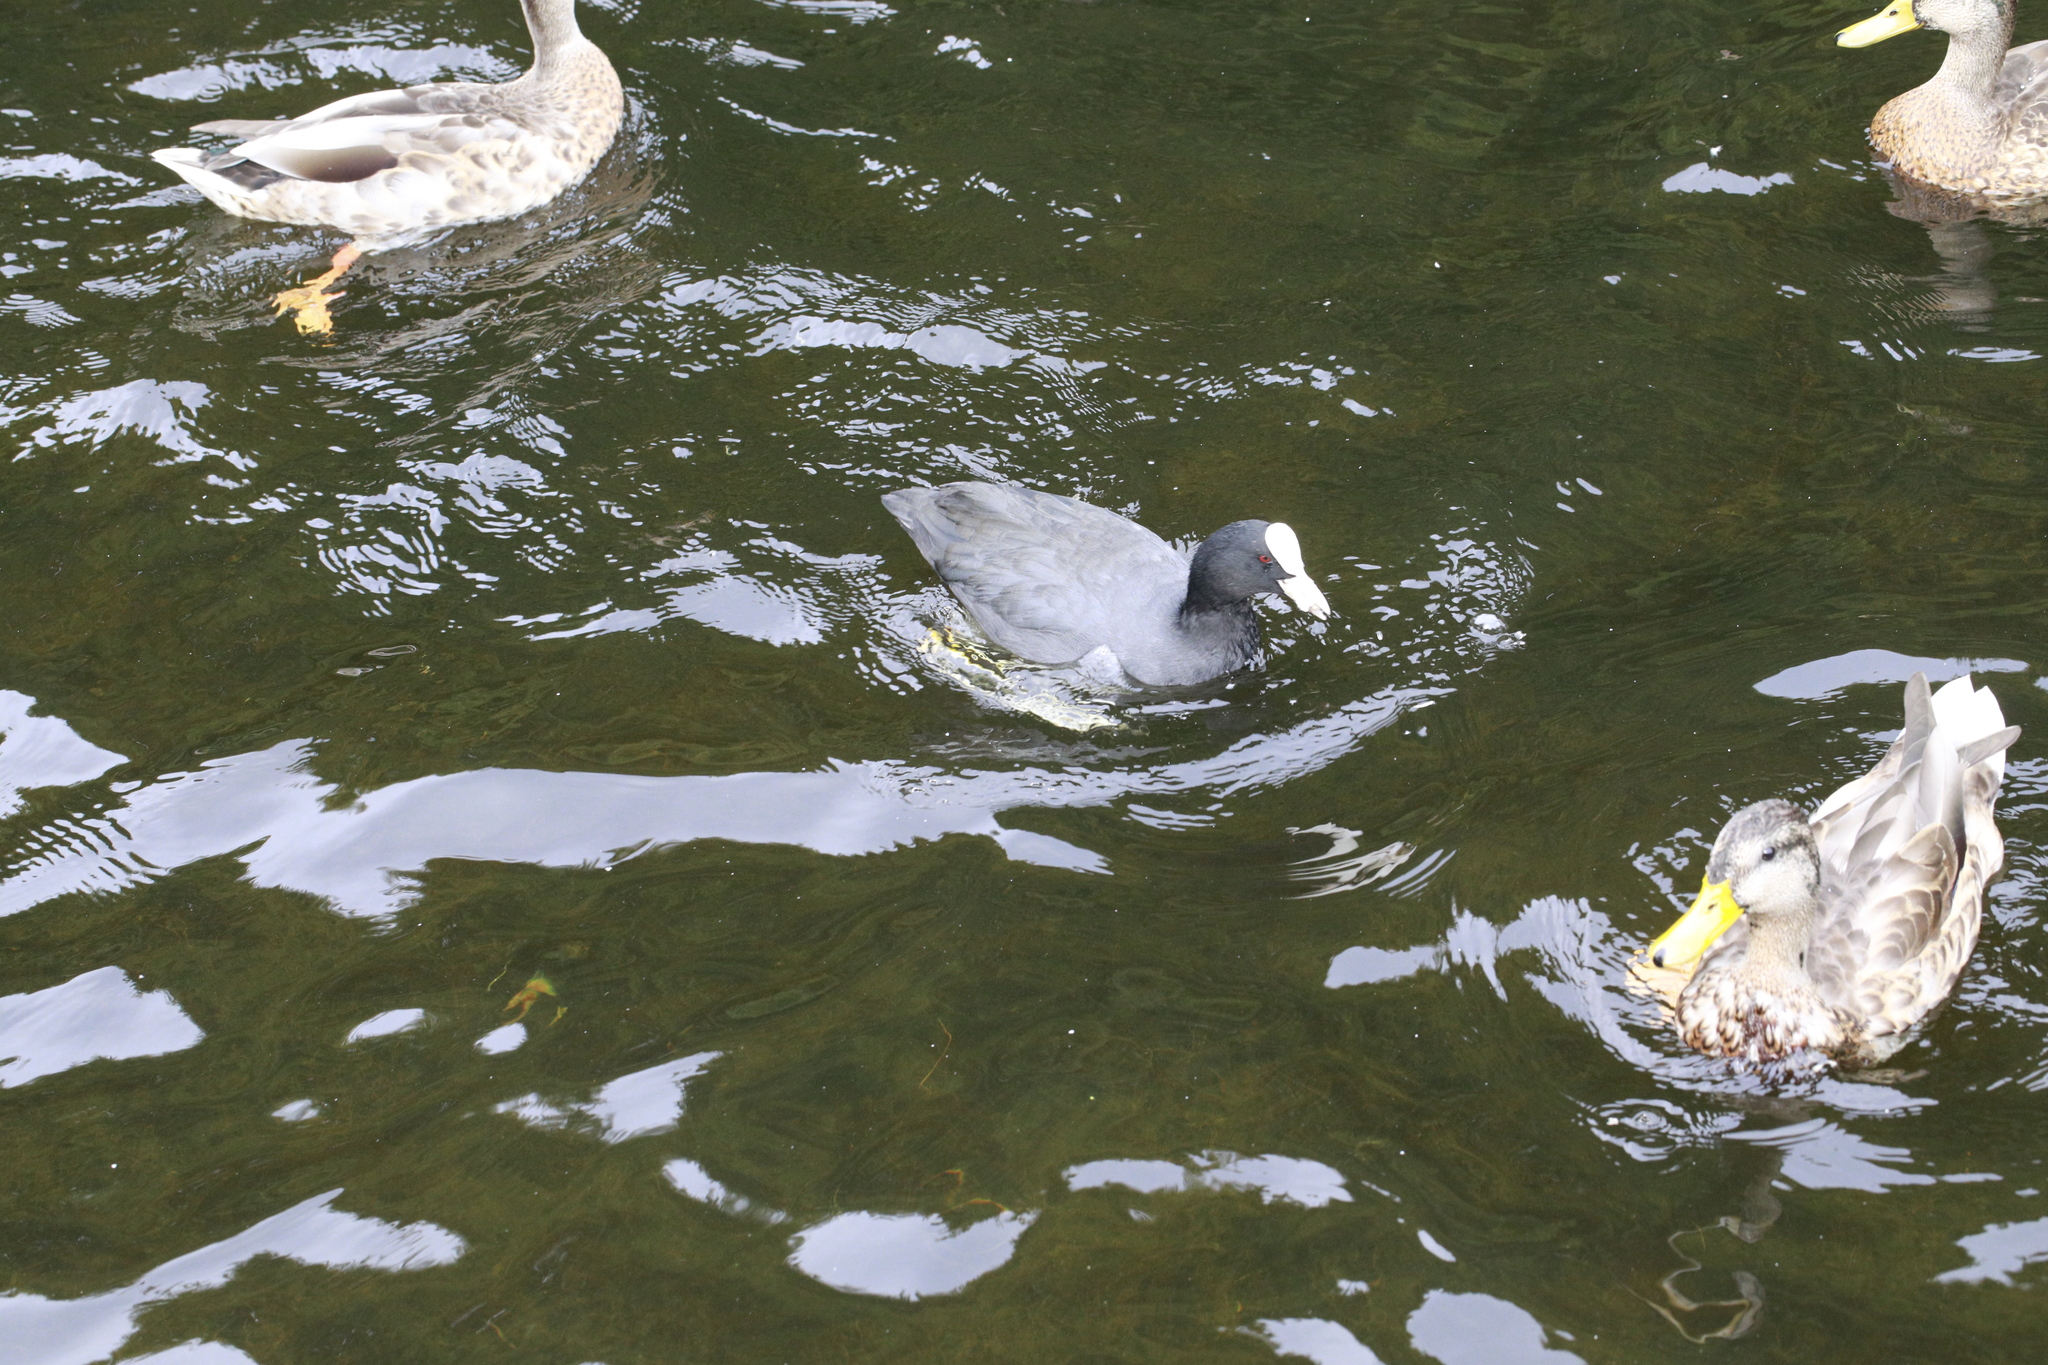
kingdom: Animalia
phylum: Chordata
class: Aves
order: Gruiformes
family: Rallidae
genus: Fulica
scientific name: Fulica atra
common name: Eurasian coot
